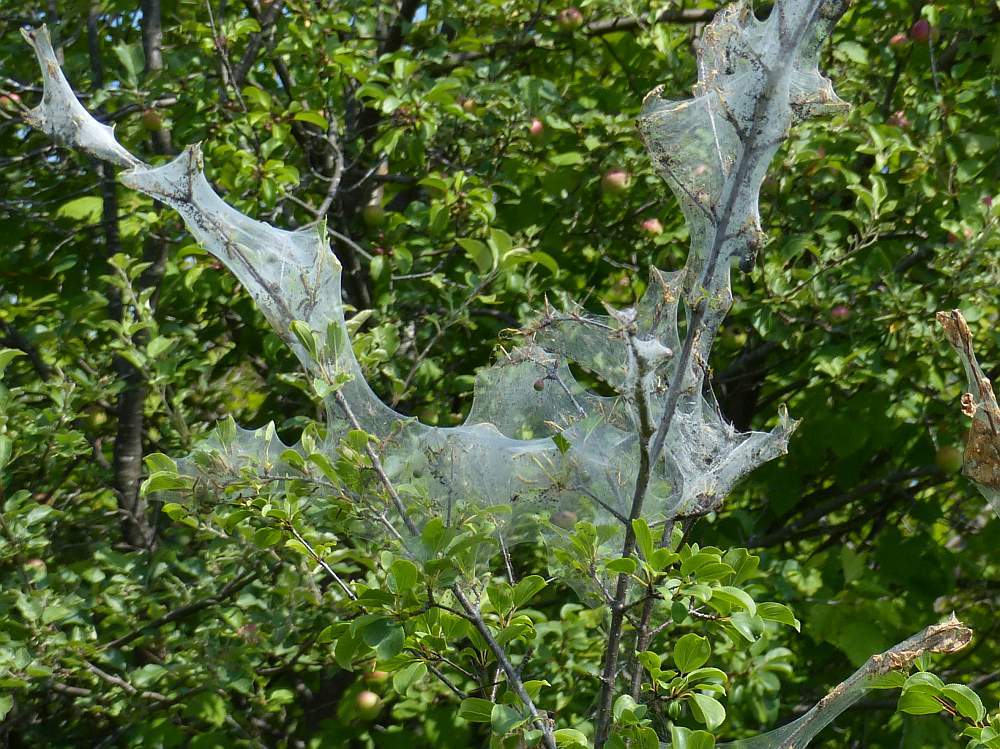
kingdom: Animalia
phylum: Arthropoda
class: Insecta
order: Lepidoptera
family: Erebidae
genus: Hyphantria
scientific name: Hyphantria cunea
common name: American white moth
